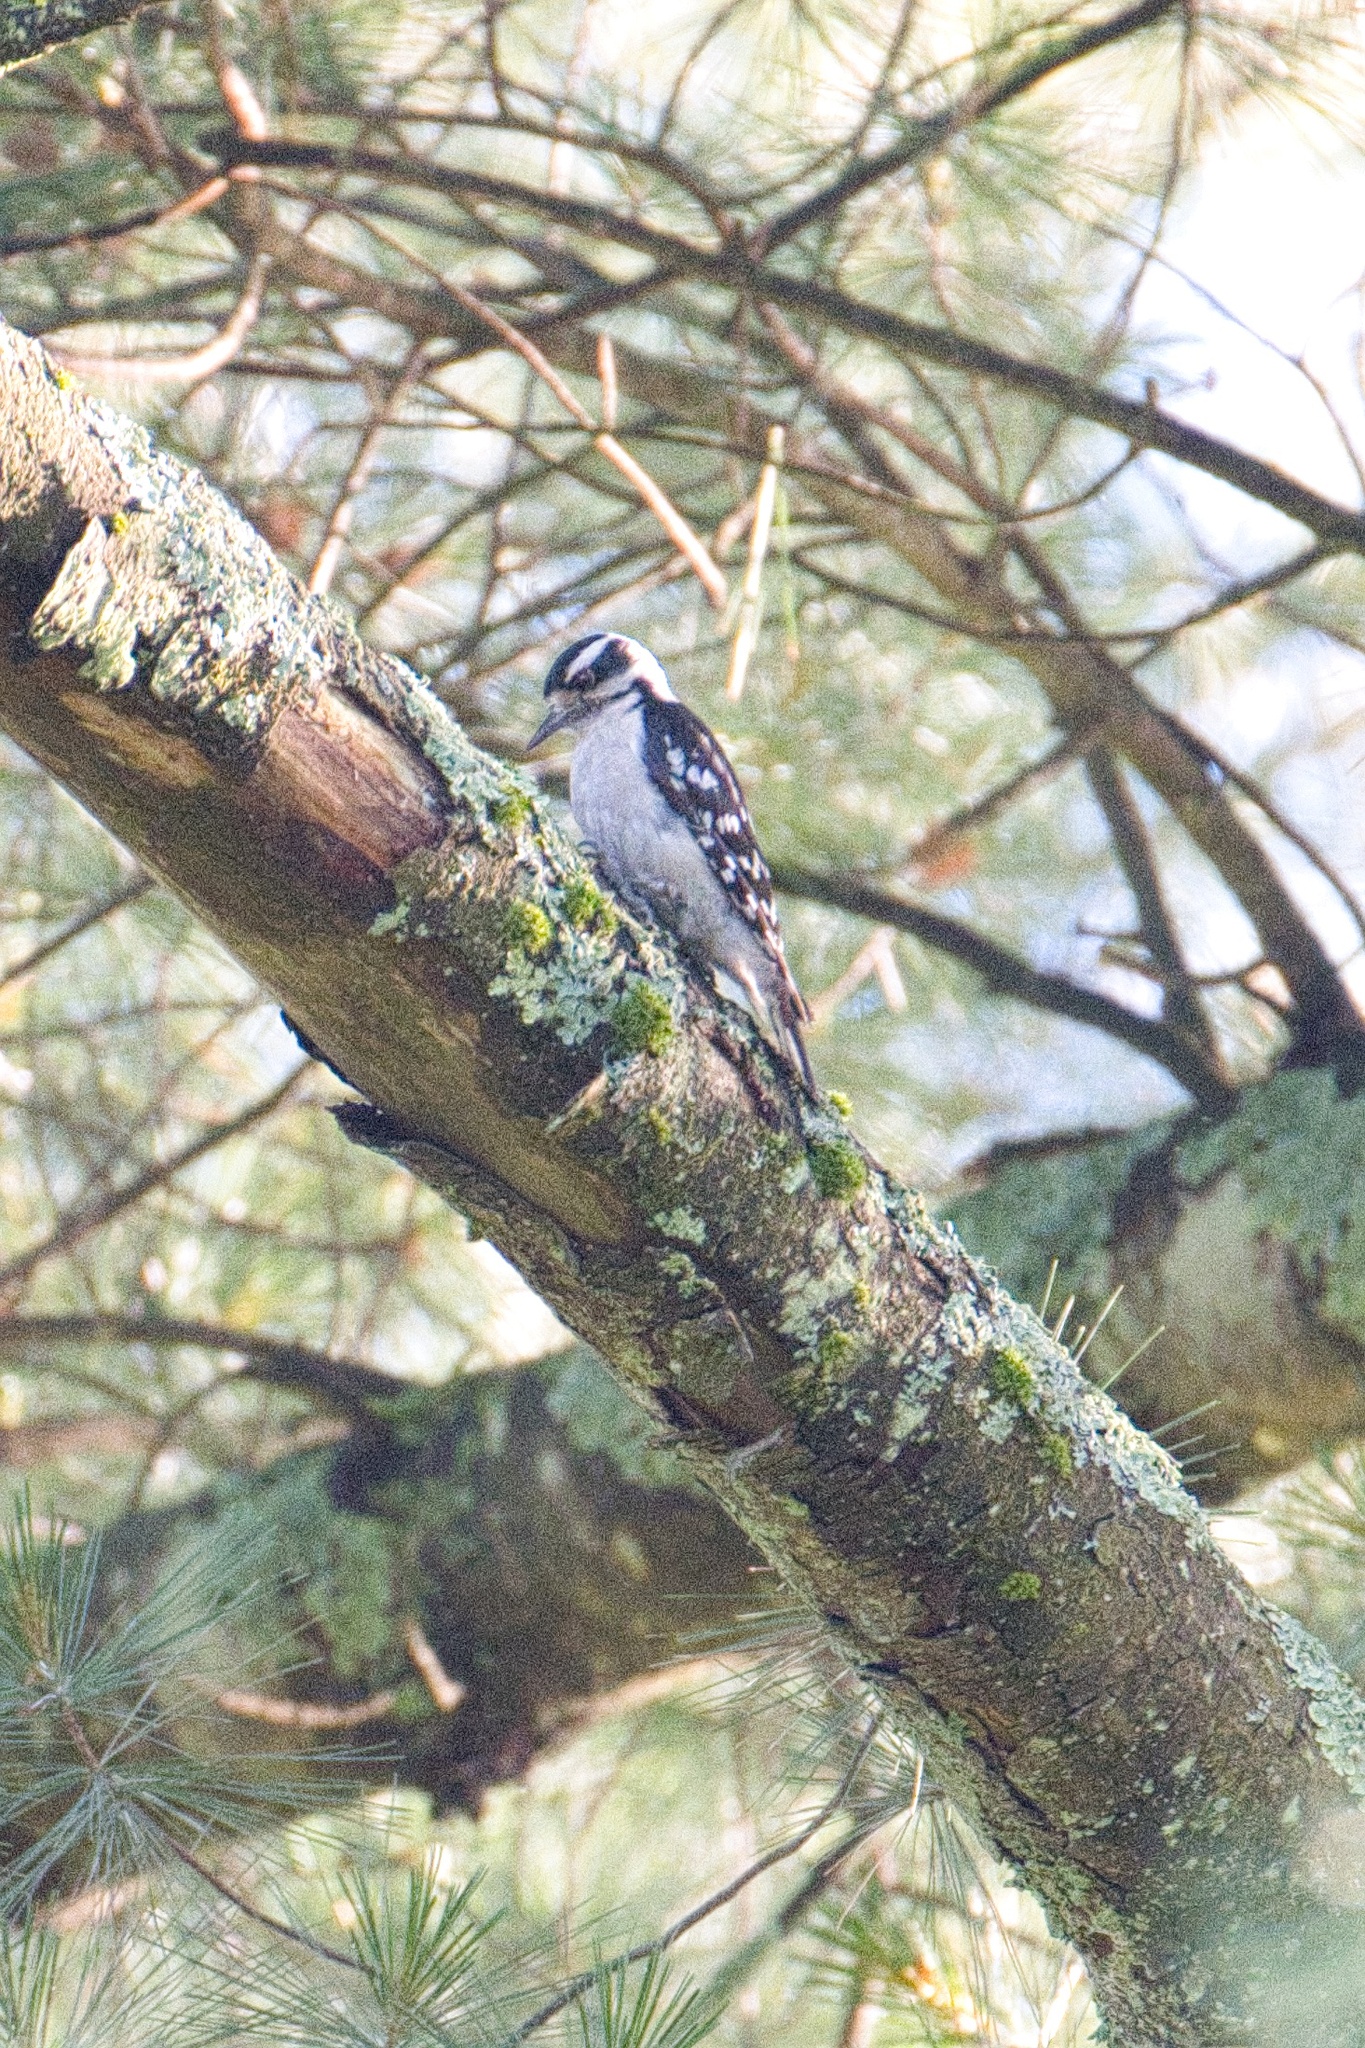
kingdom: Animalia
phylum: Chordata
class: Aves
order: Piciformes
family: Picidae
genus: Dryobates
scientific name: Dryobates pubescens
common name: Downy woodpecker
